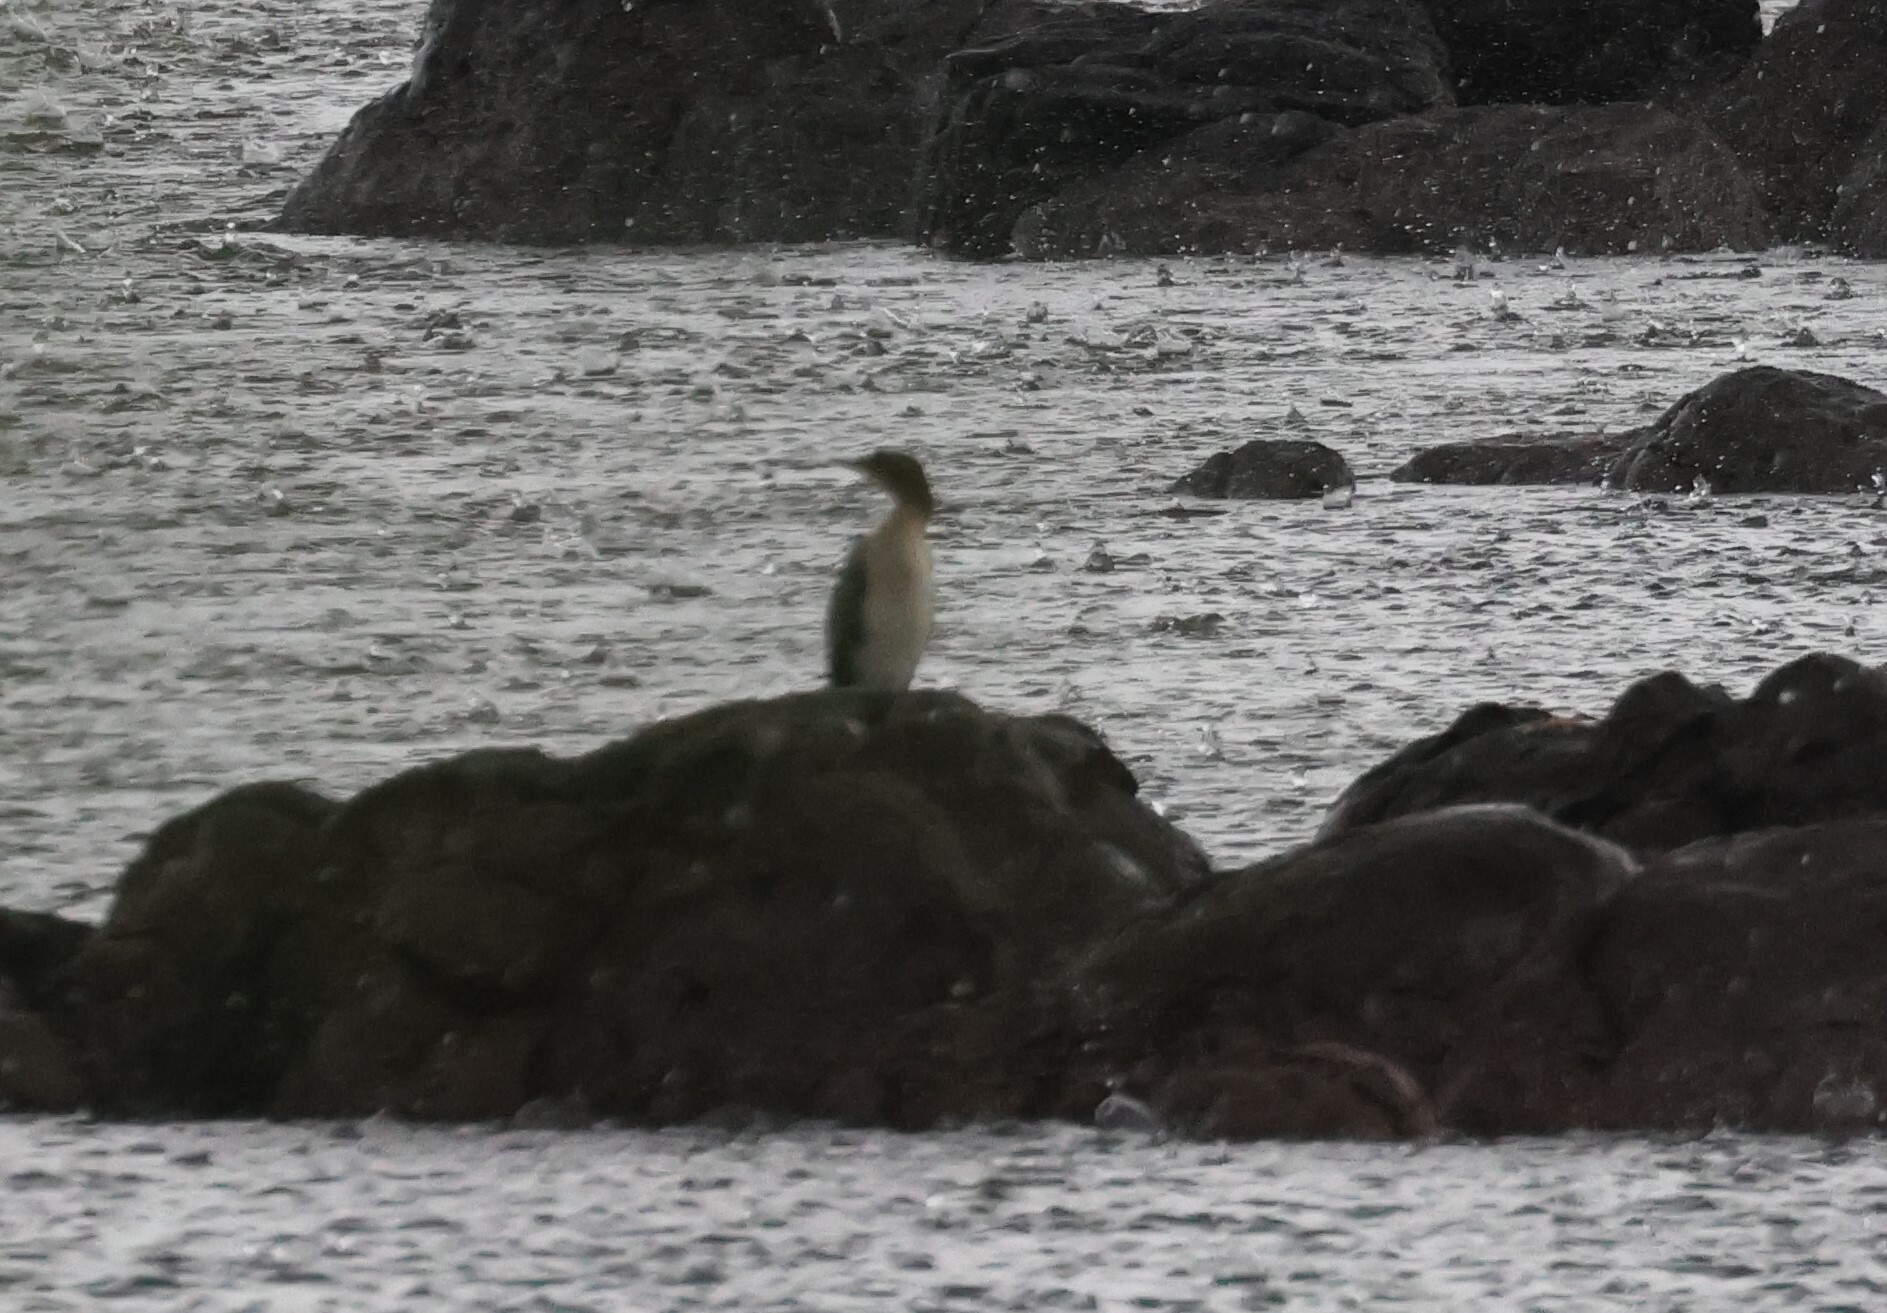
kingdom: Animalia
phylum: Chordata
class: Aves
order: Suliformes
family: Phalacrocoracidae
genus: Microcarbo
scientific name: Microcarbo africanus
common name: Long-tailed cormorant
